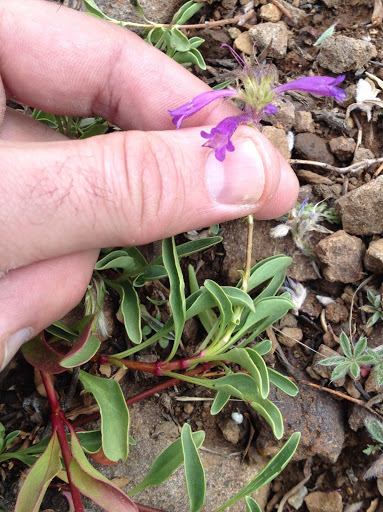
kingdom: Plantae
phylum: Tracheophyta
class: Magnoliopsida
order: Lamiales
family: Plantaginaceae
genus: Penstemon
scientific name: Penstemon heterodoxus
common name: Sierran penstemon
